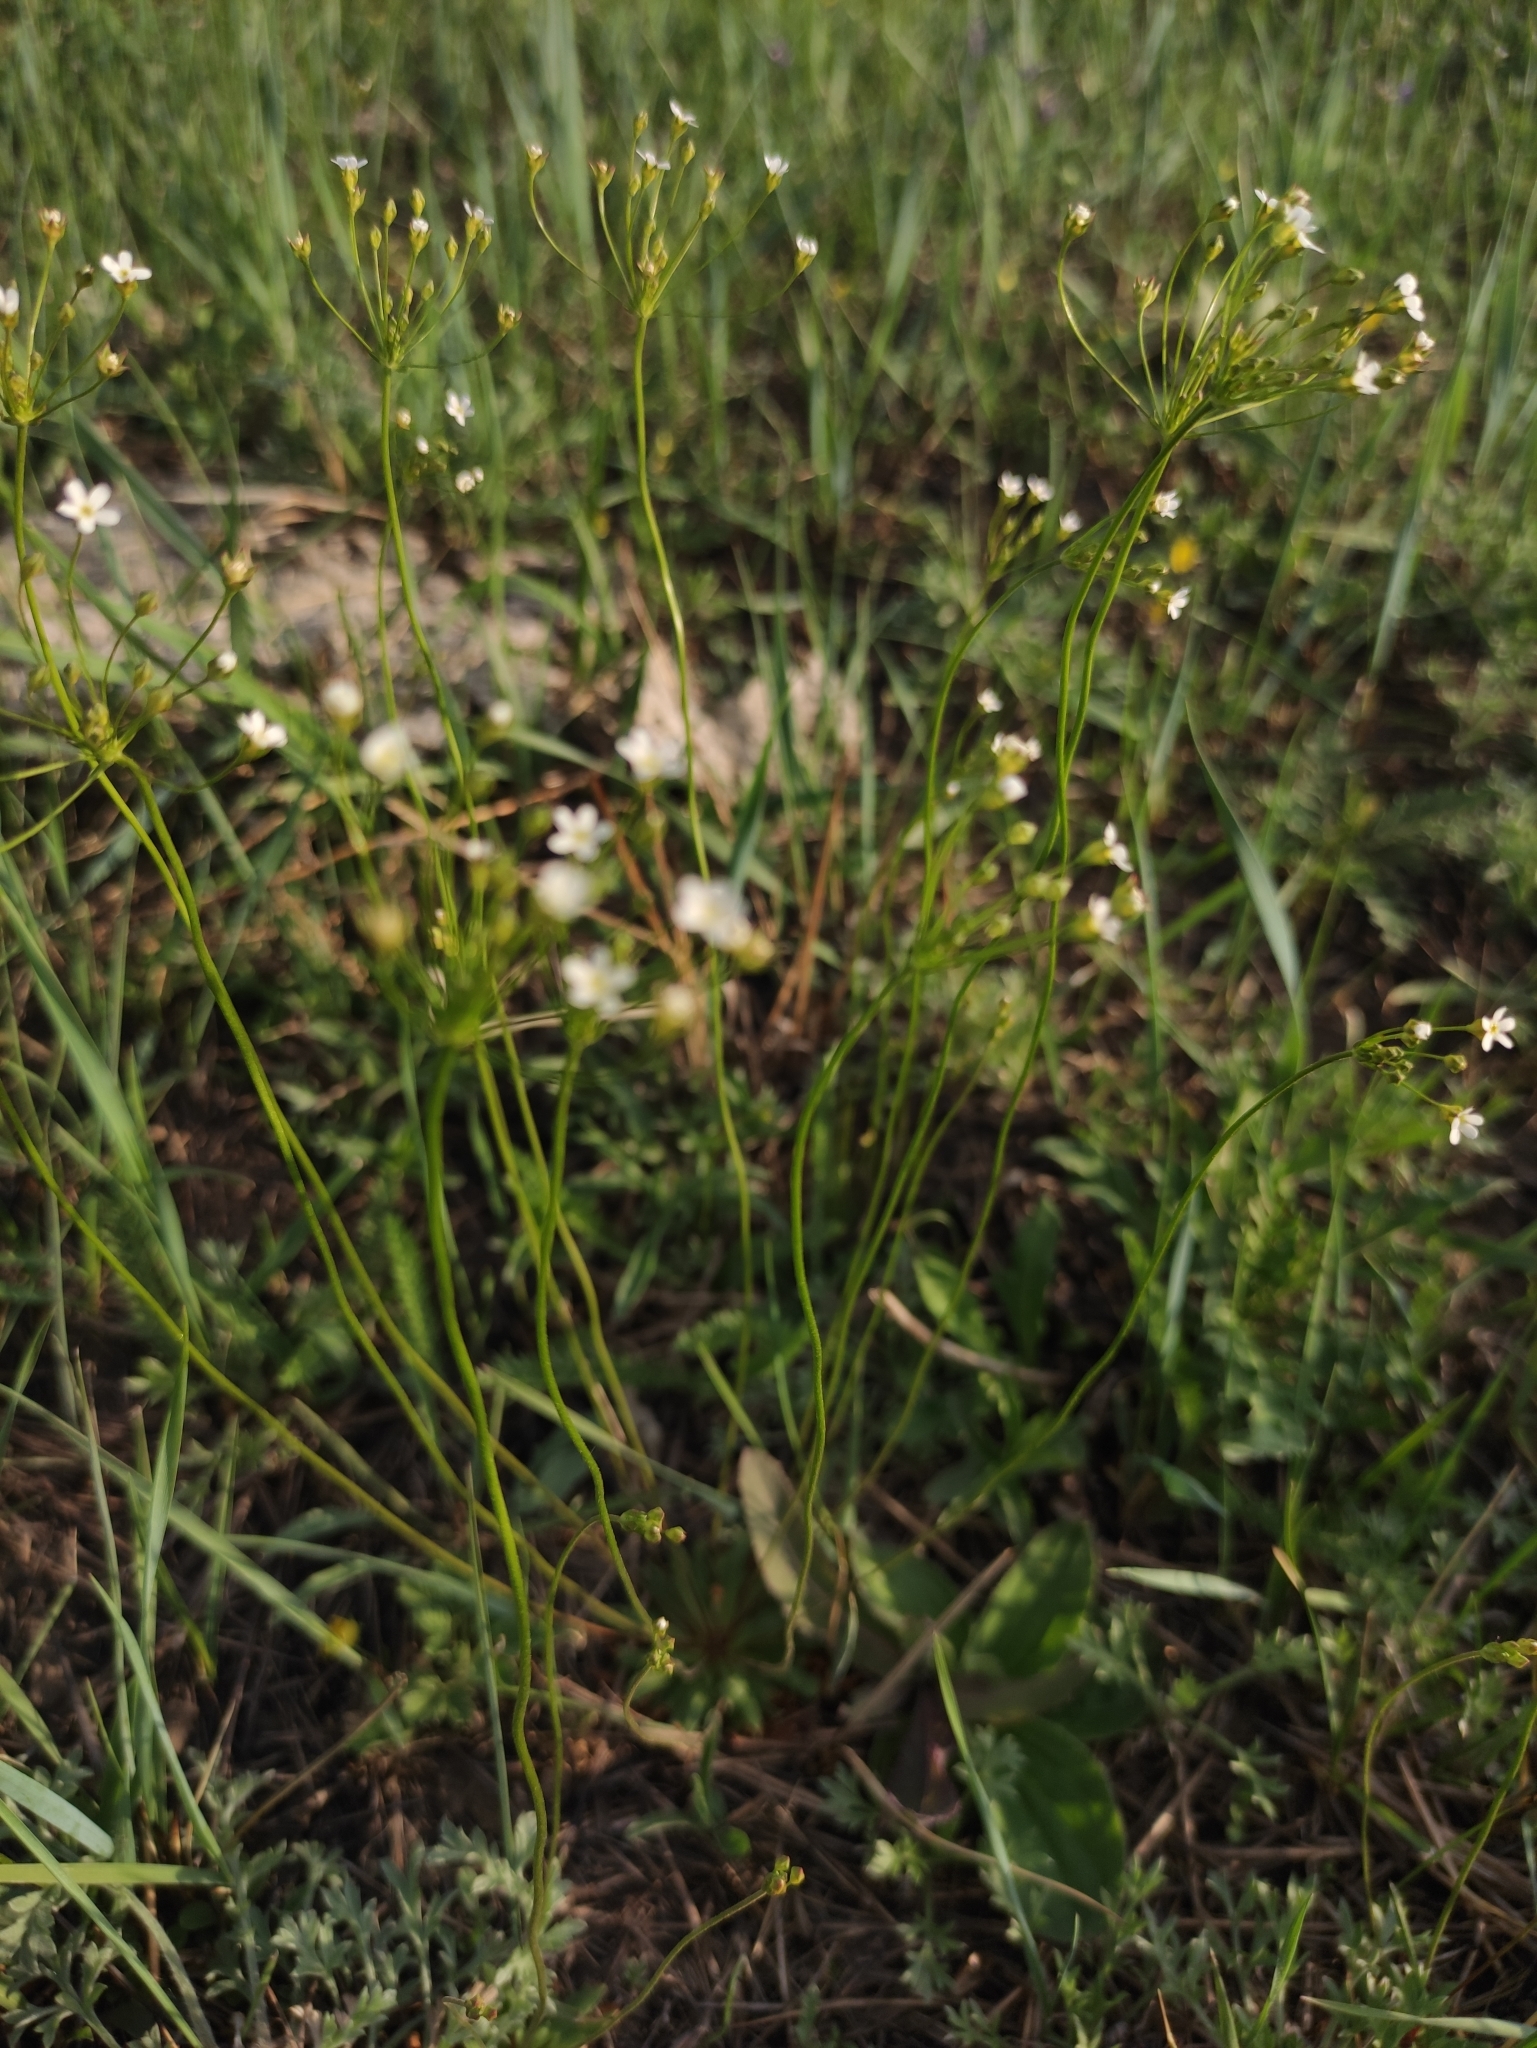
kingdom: Plantae
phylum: Tracheophyta
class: Magnoliopsida
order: Ericales
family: Primulaceae
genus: Androsace
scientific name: Androsace septentrionalis
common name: Hairy northern fairy-candelabra
